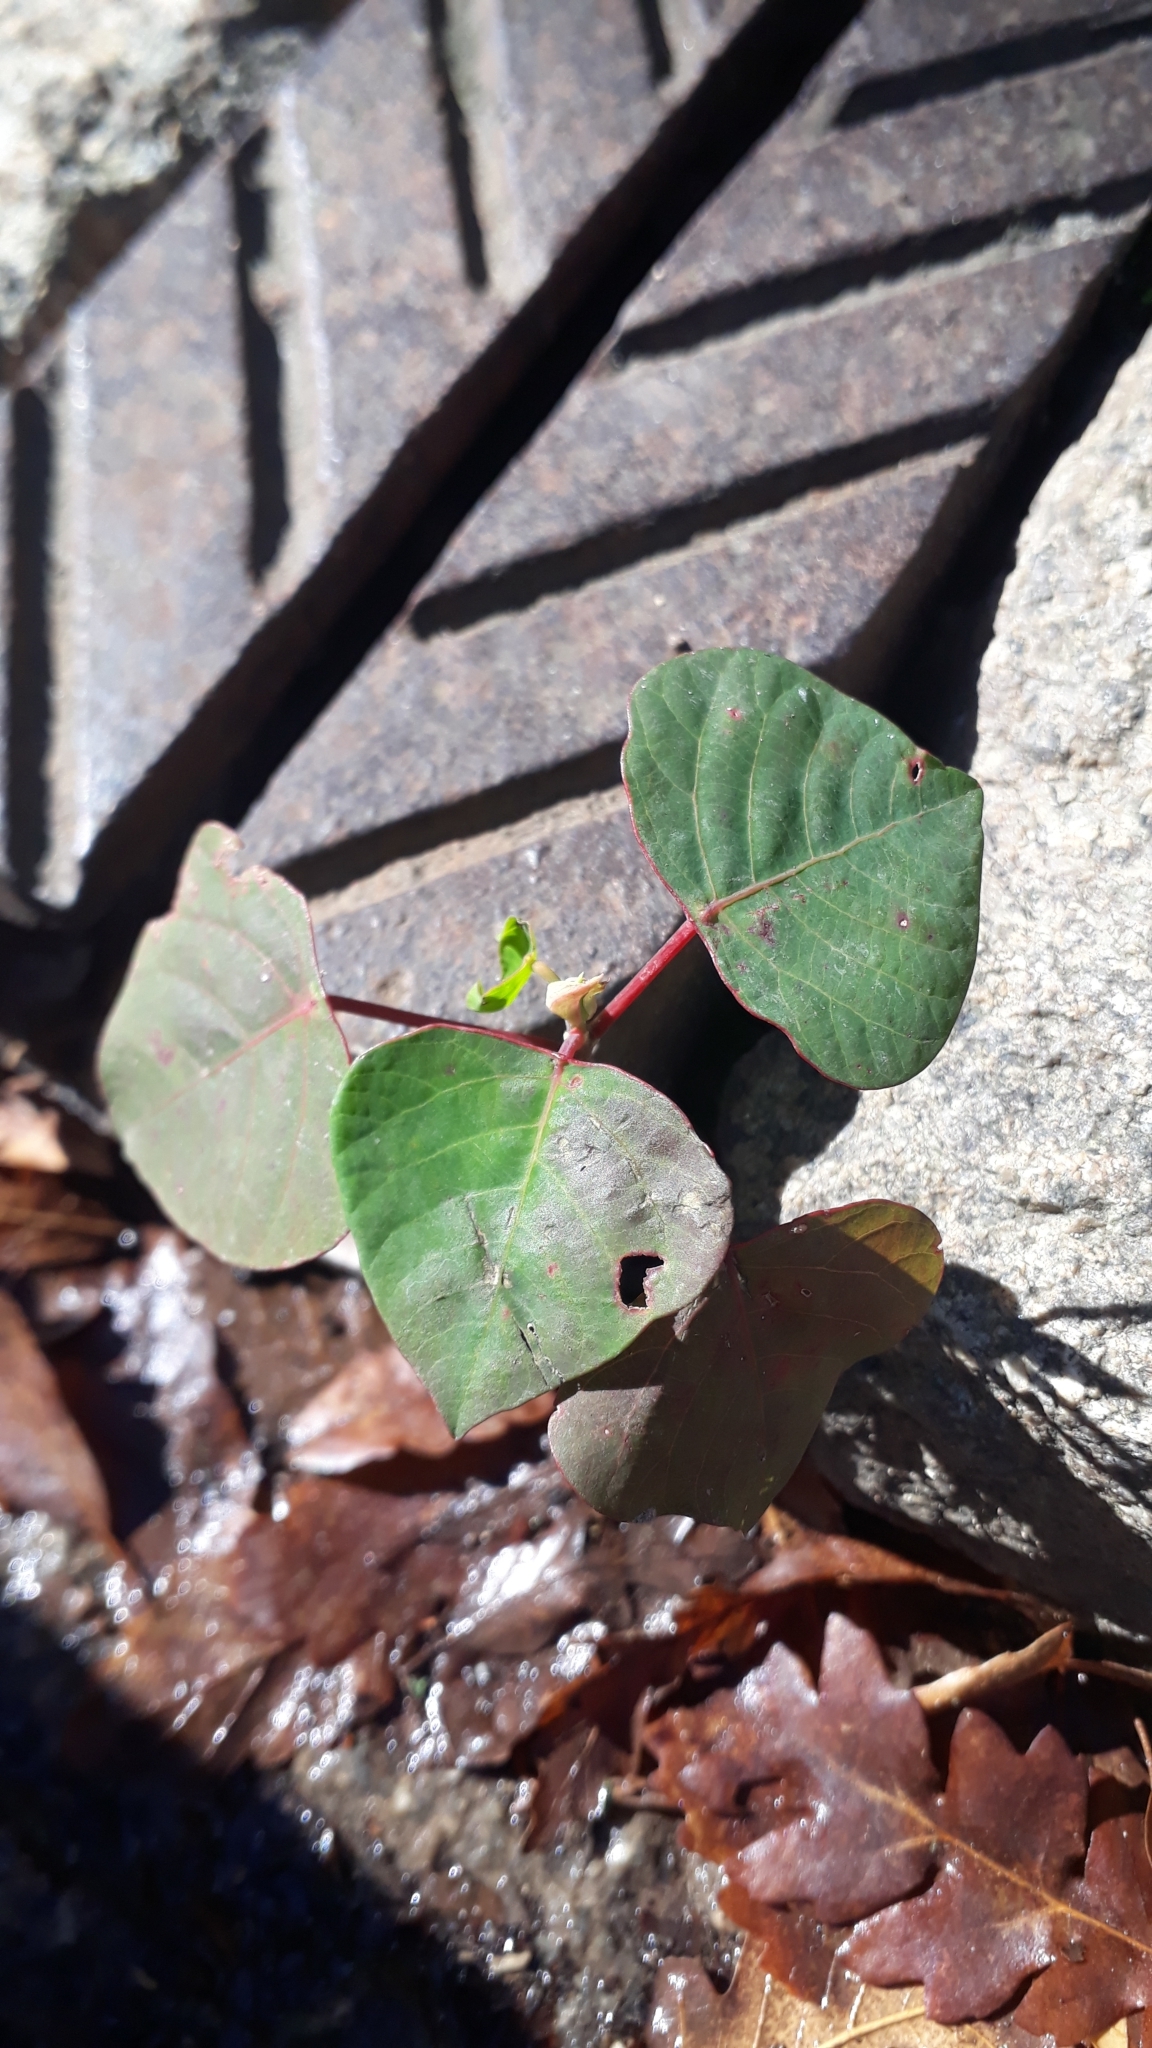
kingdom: Plantae
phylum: Tracheophyta
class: Magnoliopsida
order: Malpighiales
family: Euphorbiaceae
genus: Homalanthus
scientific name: Homalanthus populifolius
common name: Queensland poplar
